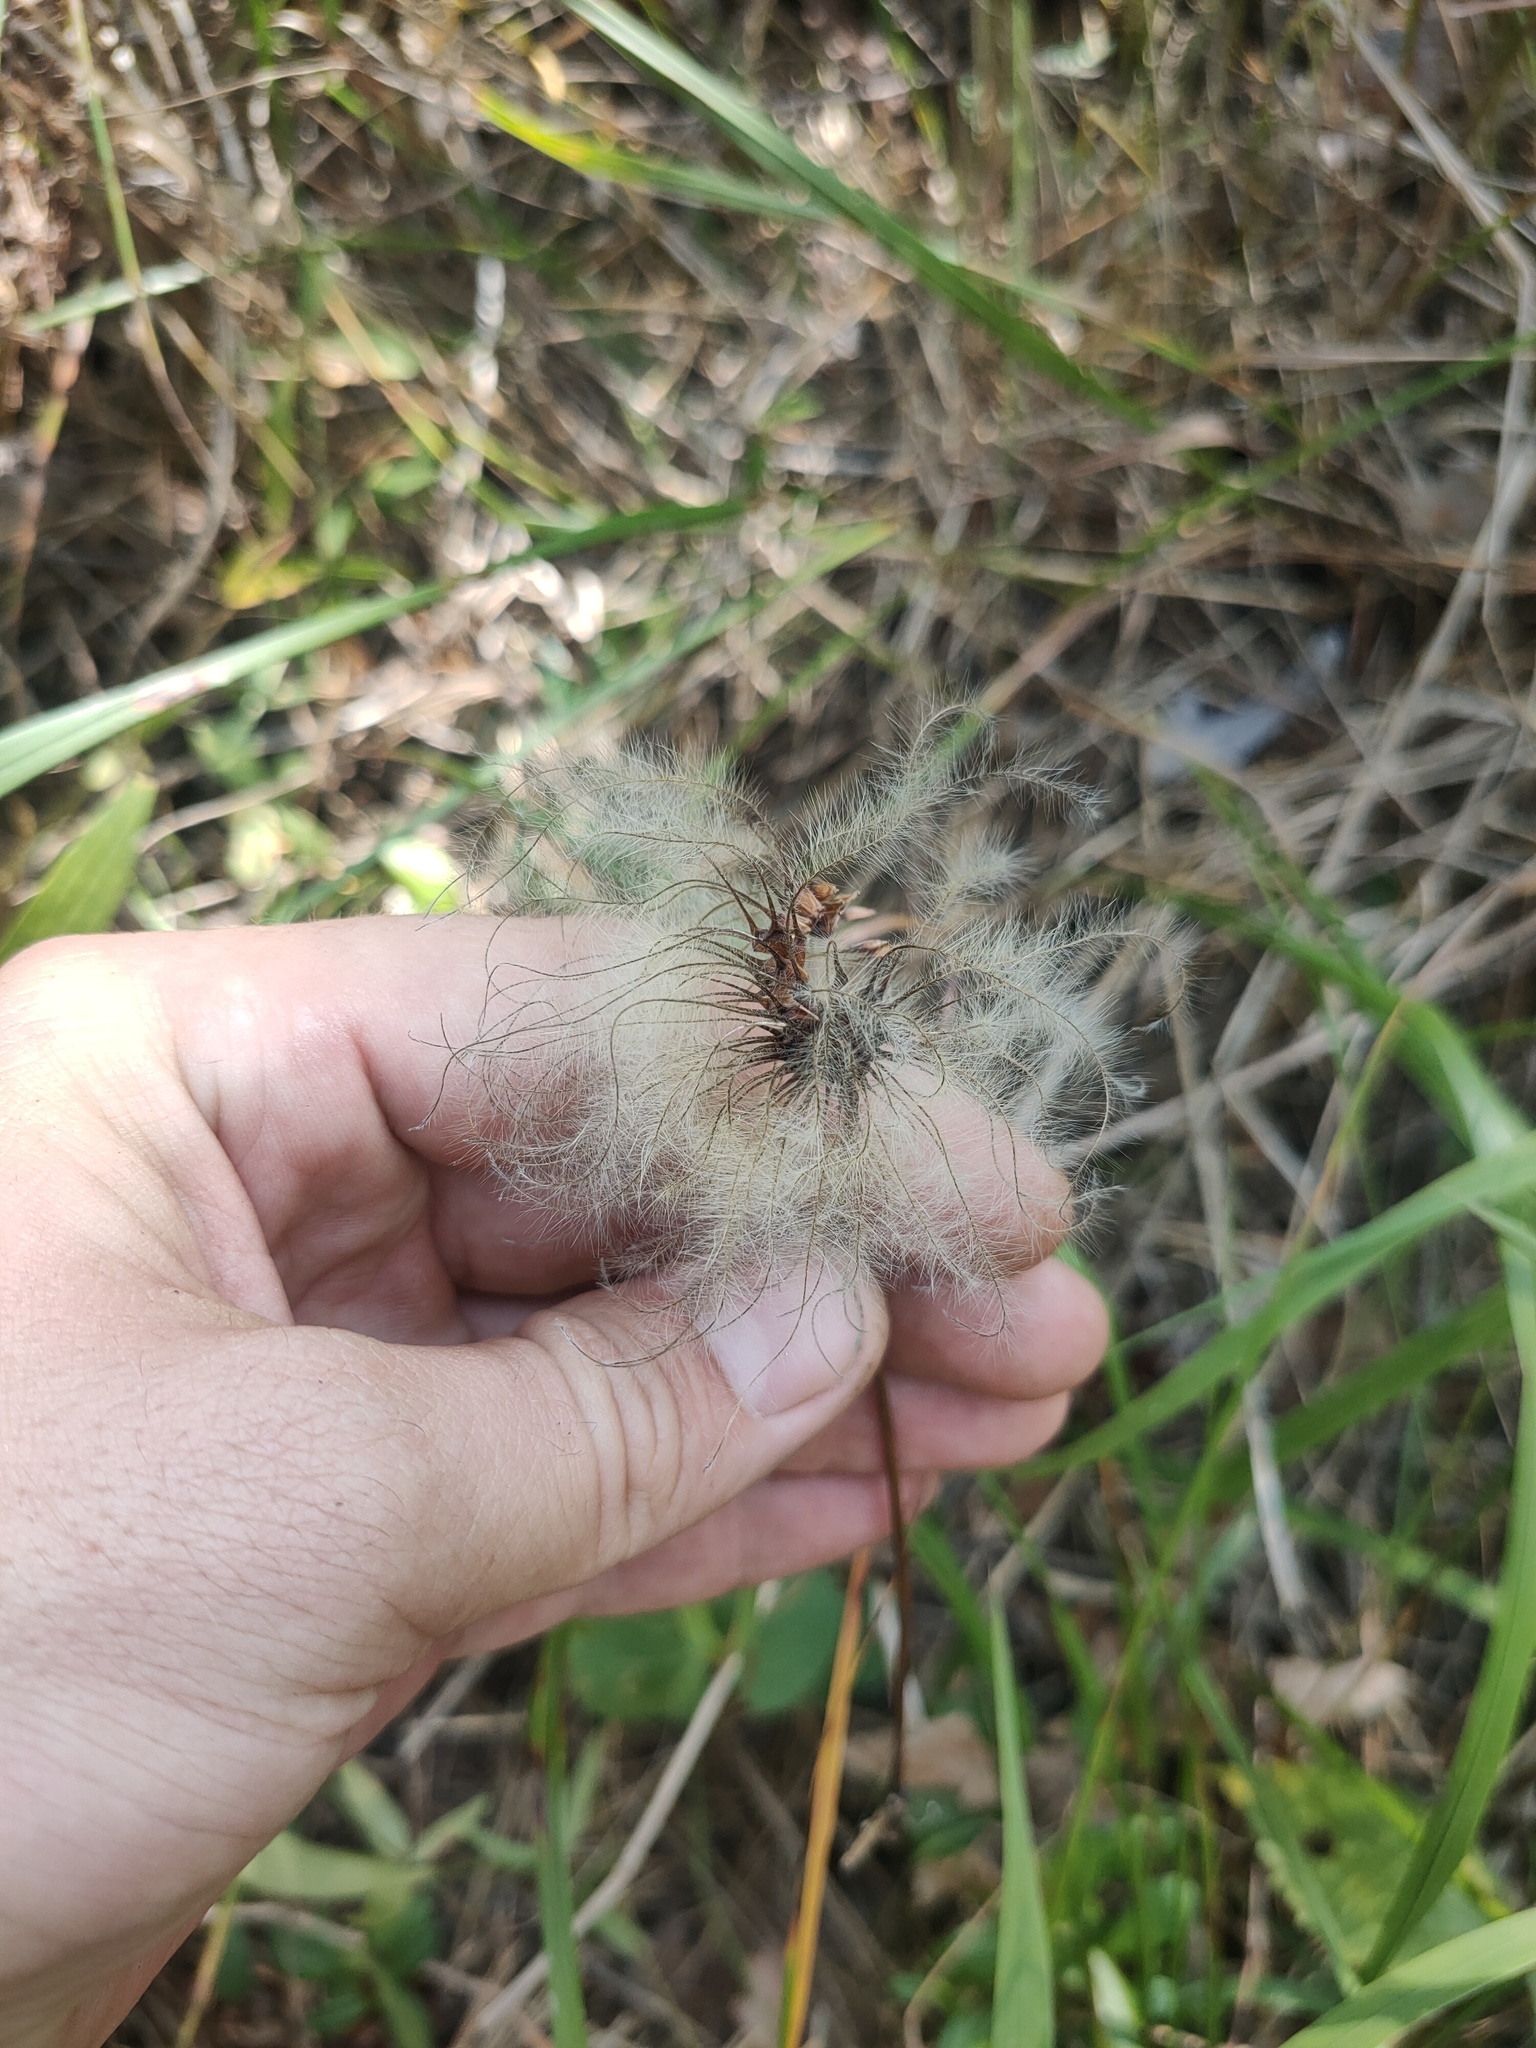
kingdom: Plantae
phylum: Tracheophyta
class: Magnoliopsida
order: Ranunculales
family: Ranunculaceae
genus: Clematis
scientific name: Clematis sibirica
